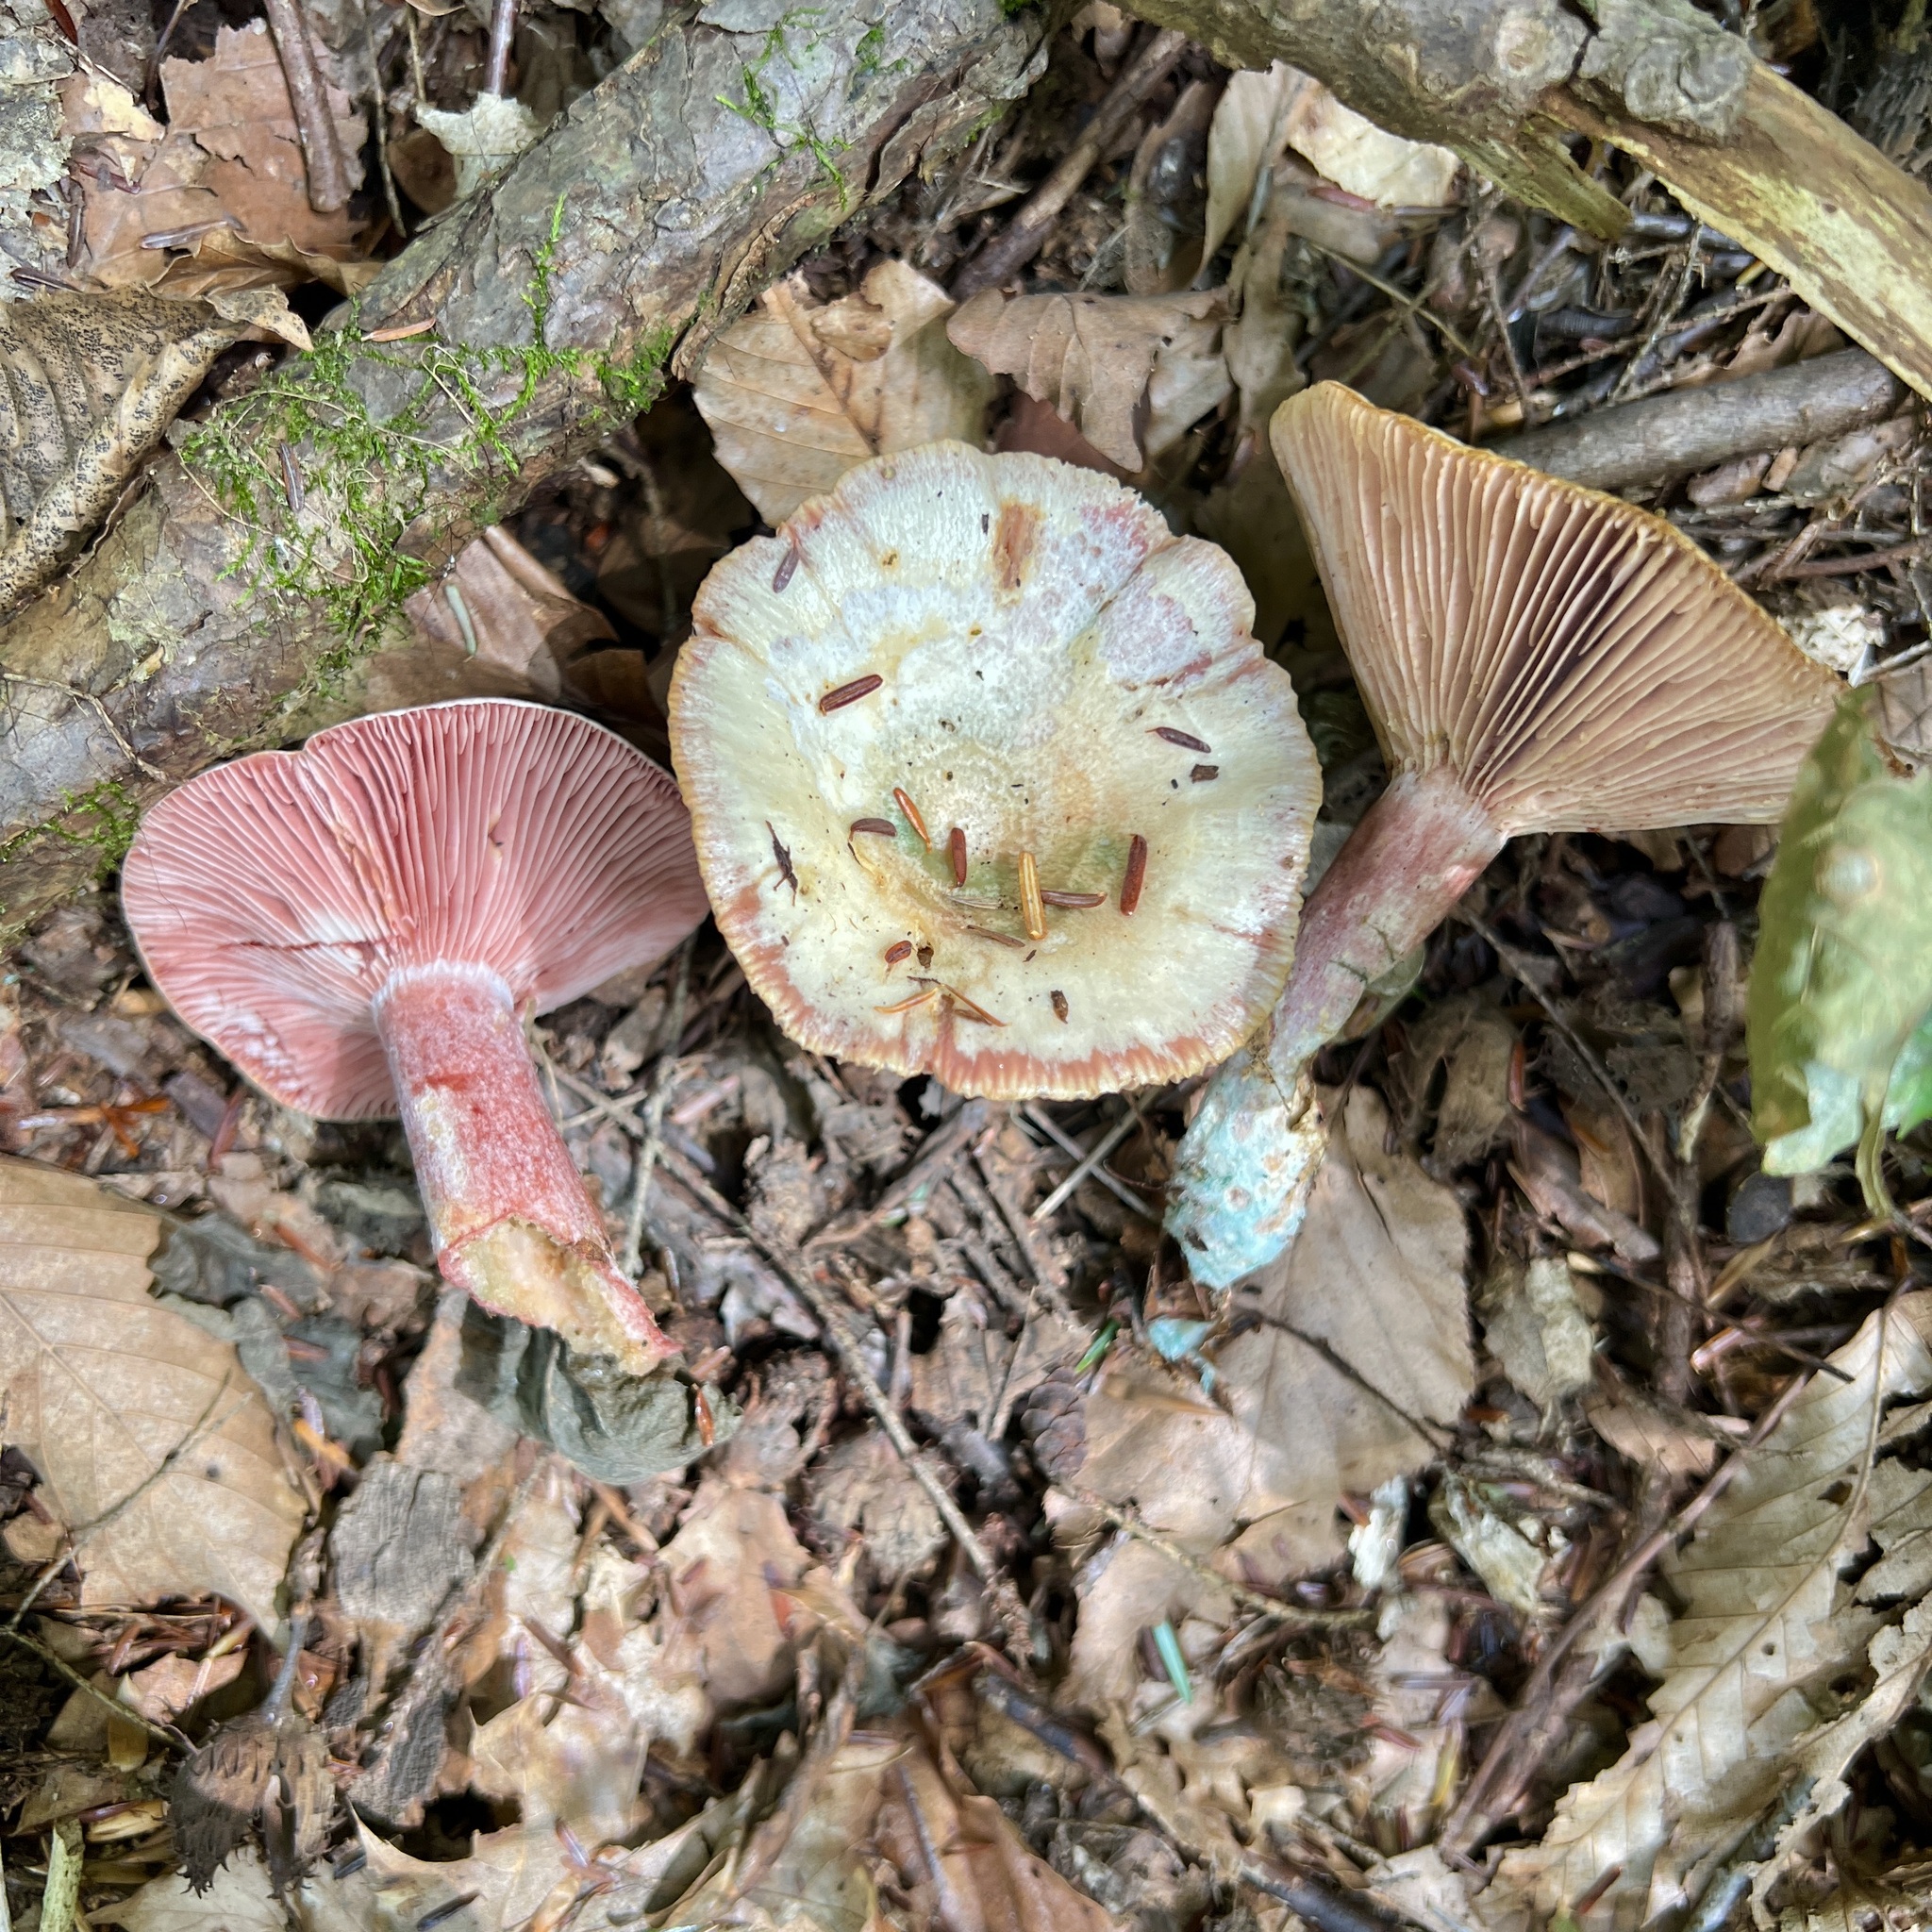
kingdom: Fungi
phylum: Basidiomycota
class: Agaricomycetes
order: Russulales
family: Russulaceae
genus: Lactarius
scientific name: Lactarius subpurpureus
